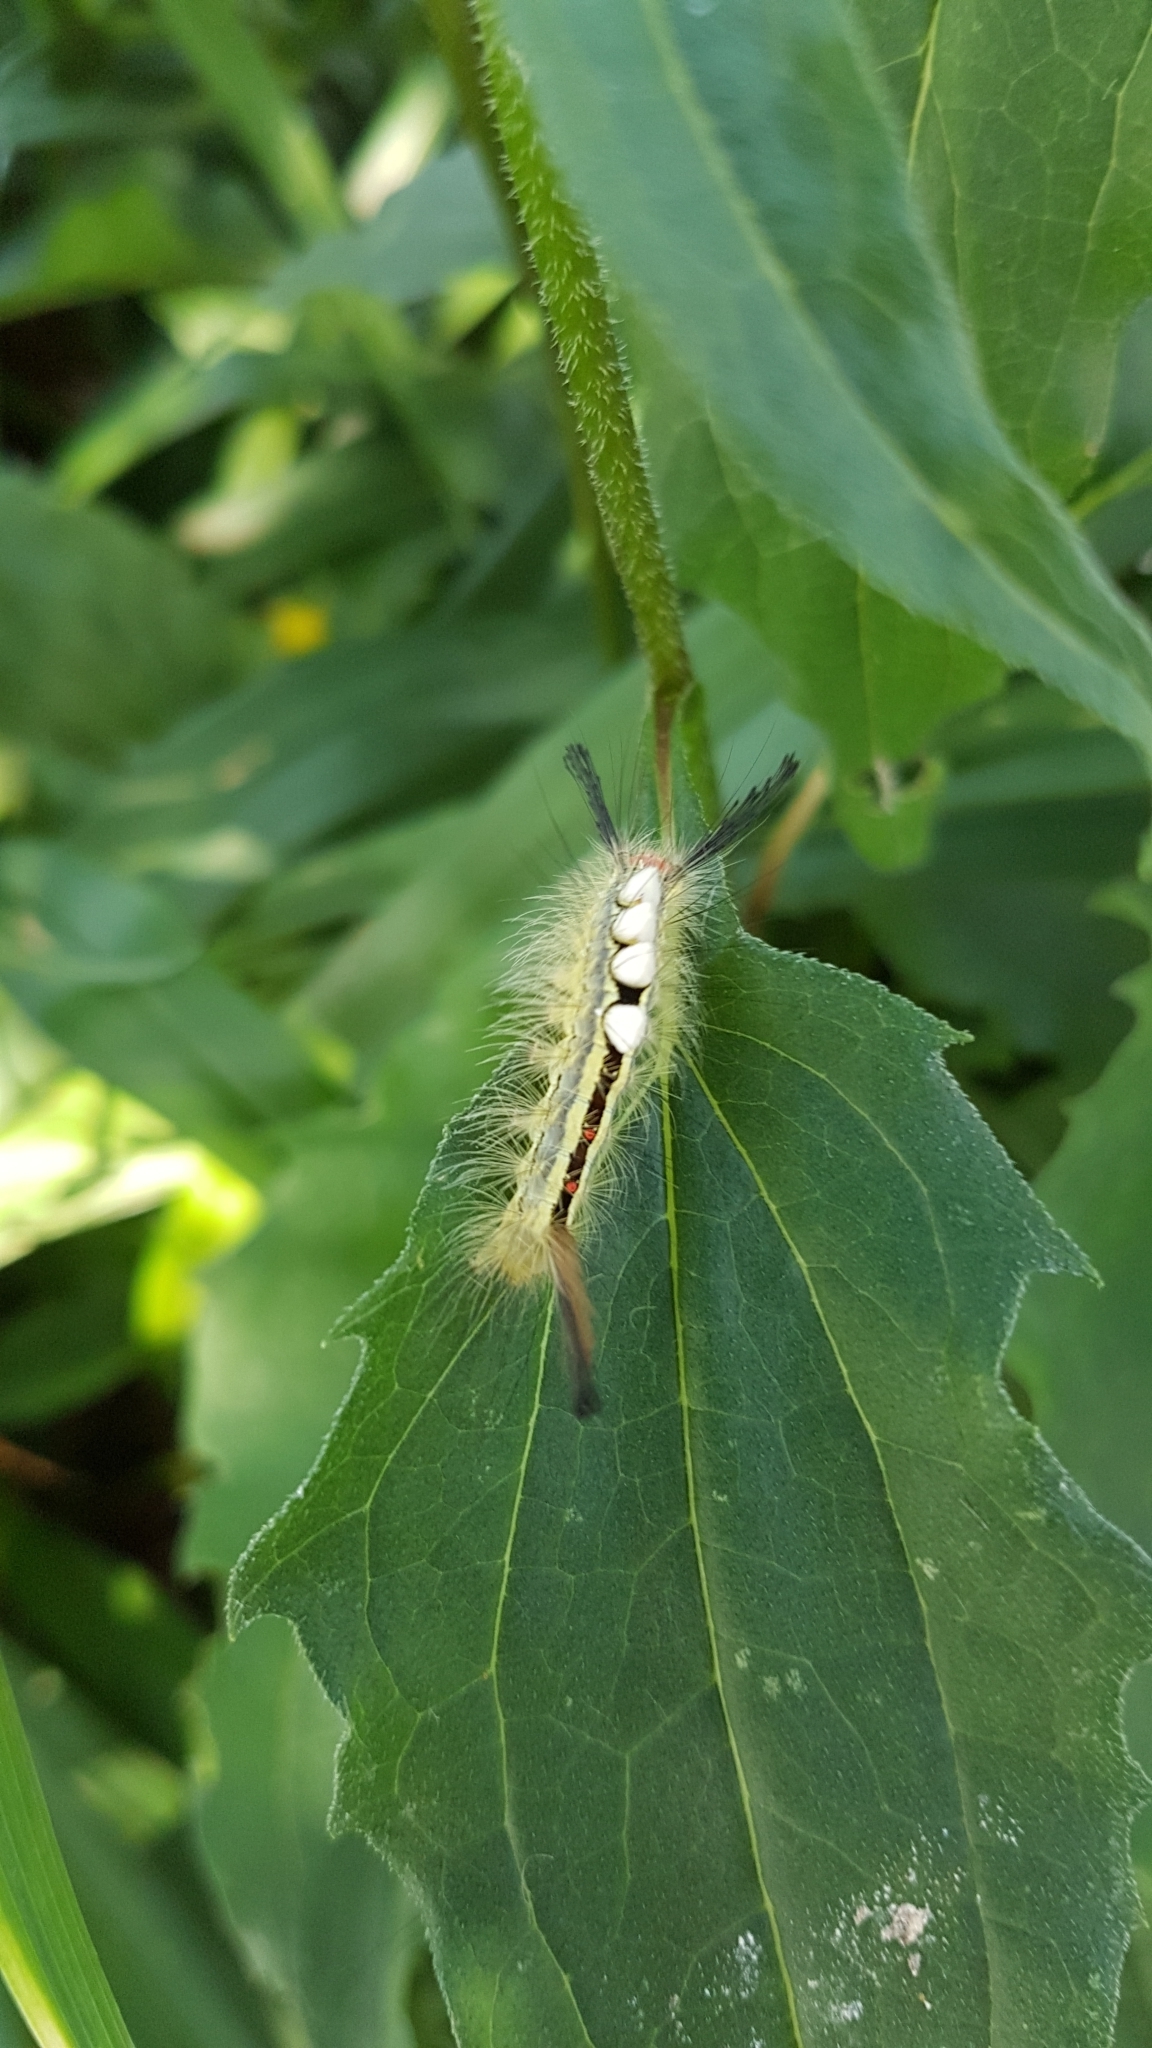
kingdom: Animalia
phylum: Arthropoda
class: Insecta
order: Lepidoptera
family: Erebidae
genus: Orgyia
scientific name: Orgyia leucostigma
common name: White-marked tussock moth
